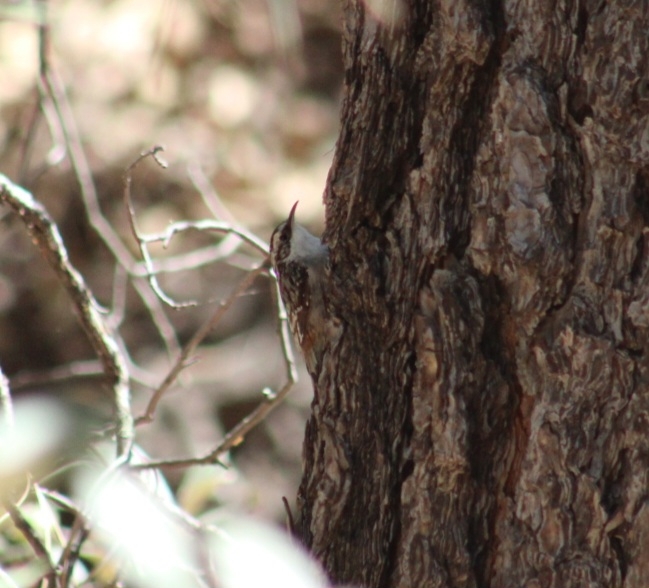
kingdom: Animalia
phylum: Chordata
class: Aves
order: Passeriformes
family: Certhiidae
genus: Certhia
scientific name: Certhia americana
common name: Brown creeper
